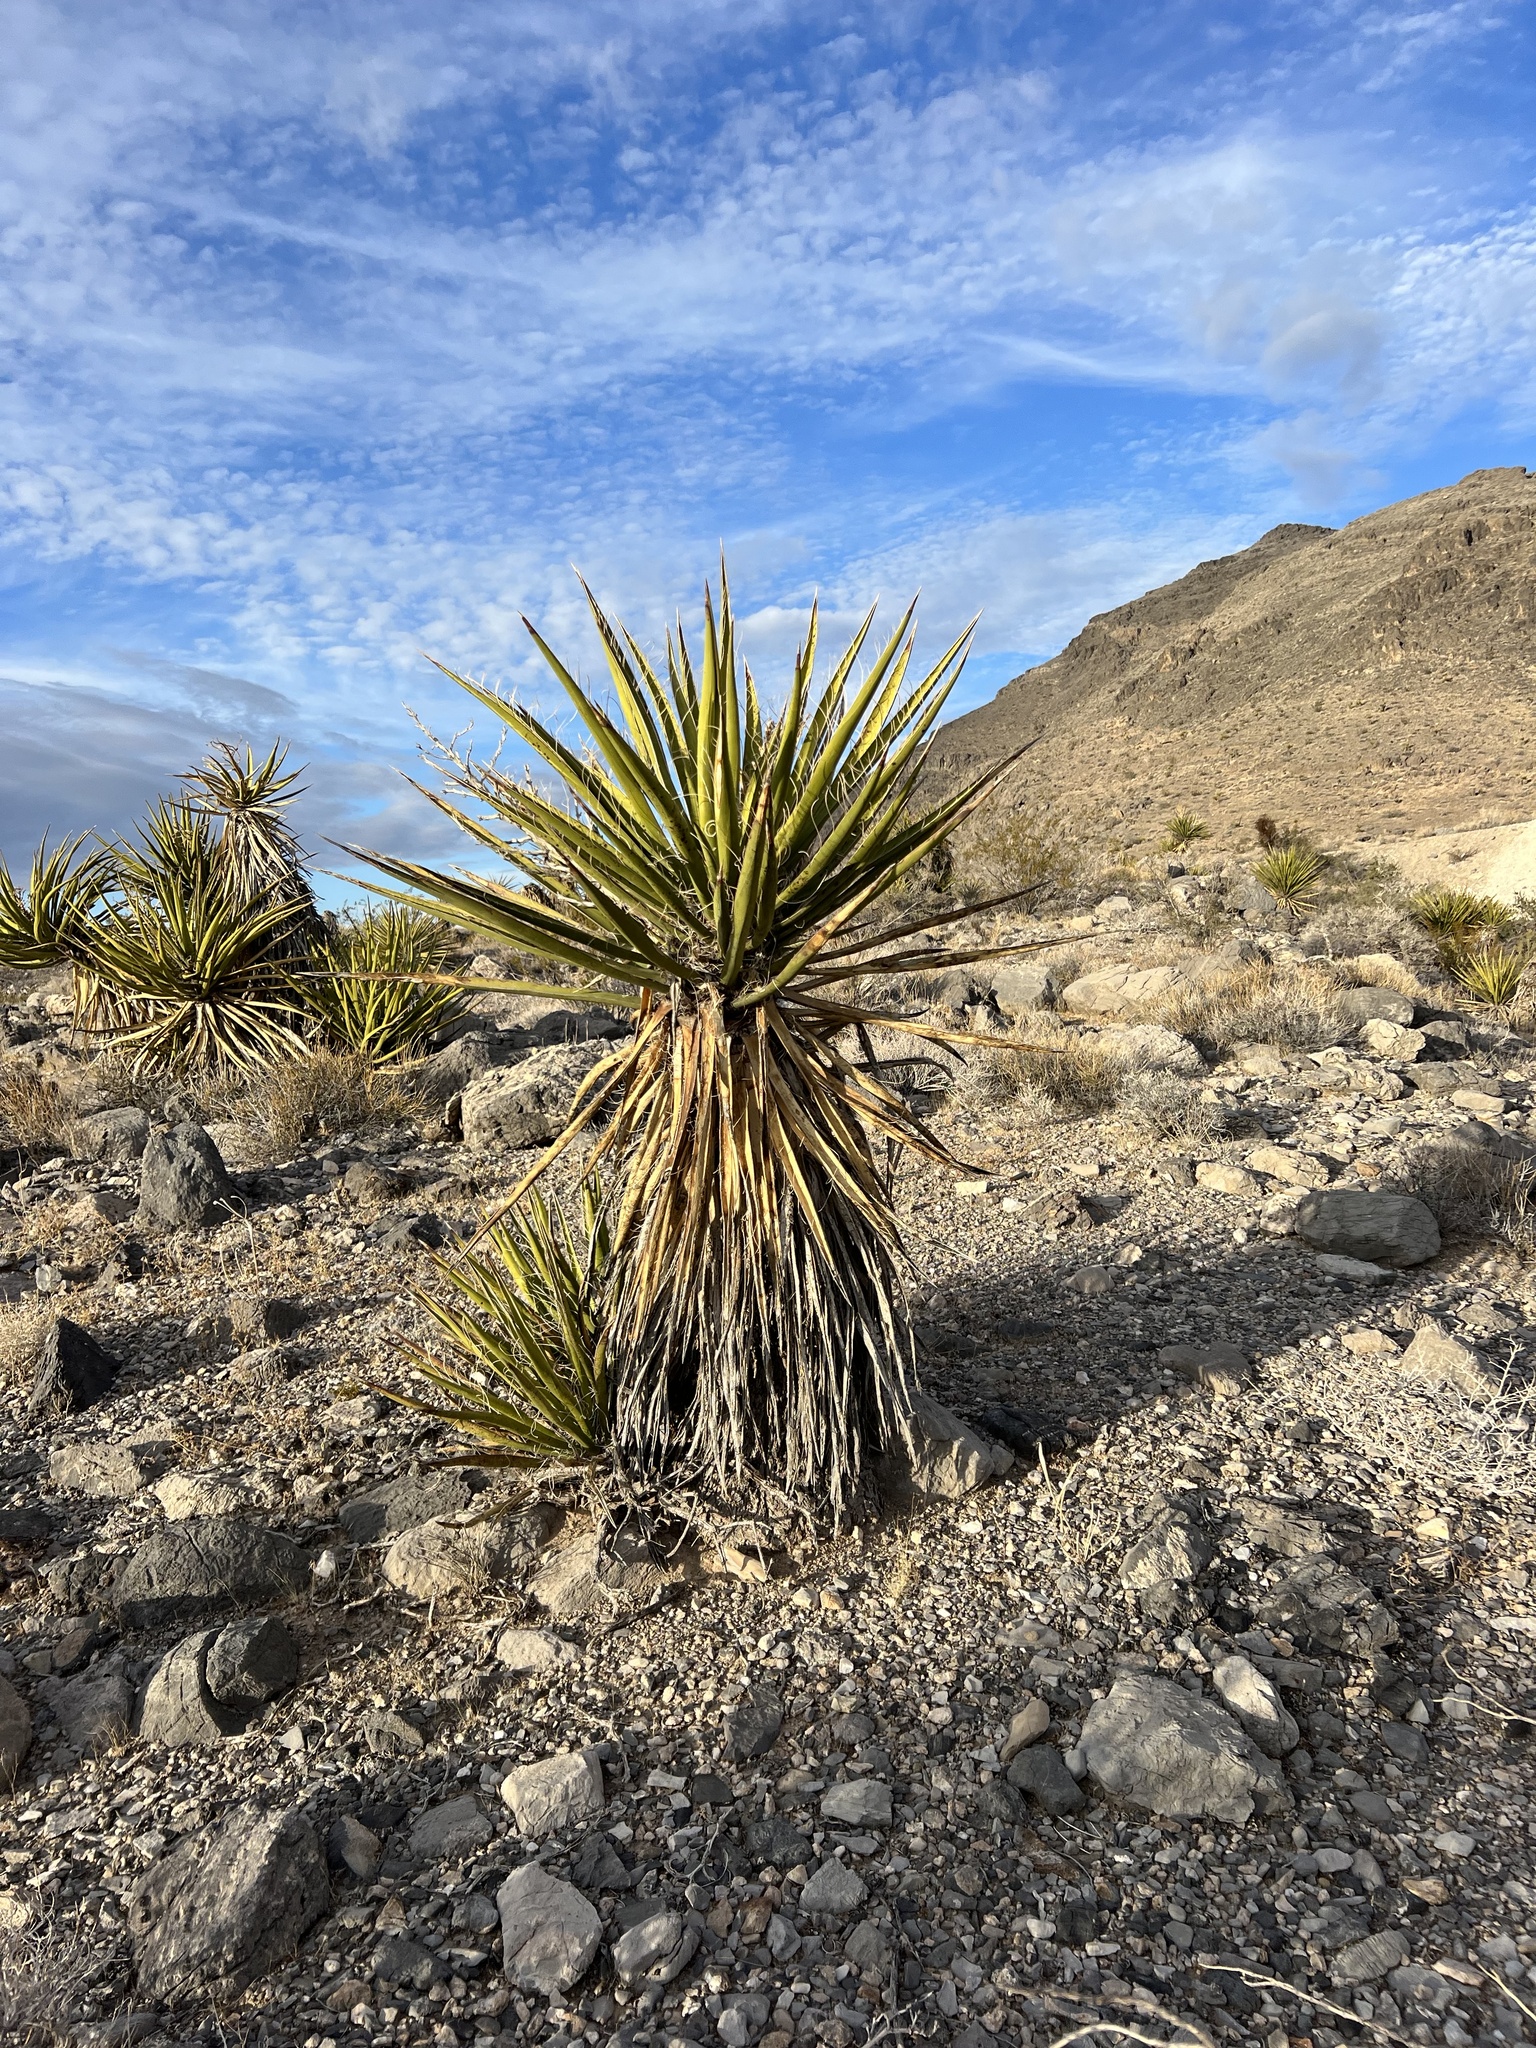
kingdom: Plantae
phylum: Tracheophyta
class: Liliopsida
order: Asparagales
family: Asparagaceae
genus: Yucca
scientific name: Yucca schidigera
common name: Mojave yucca
